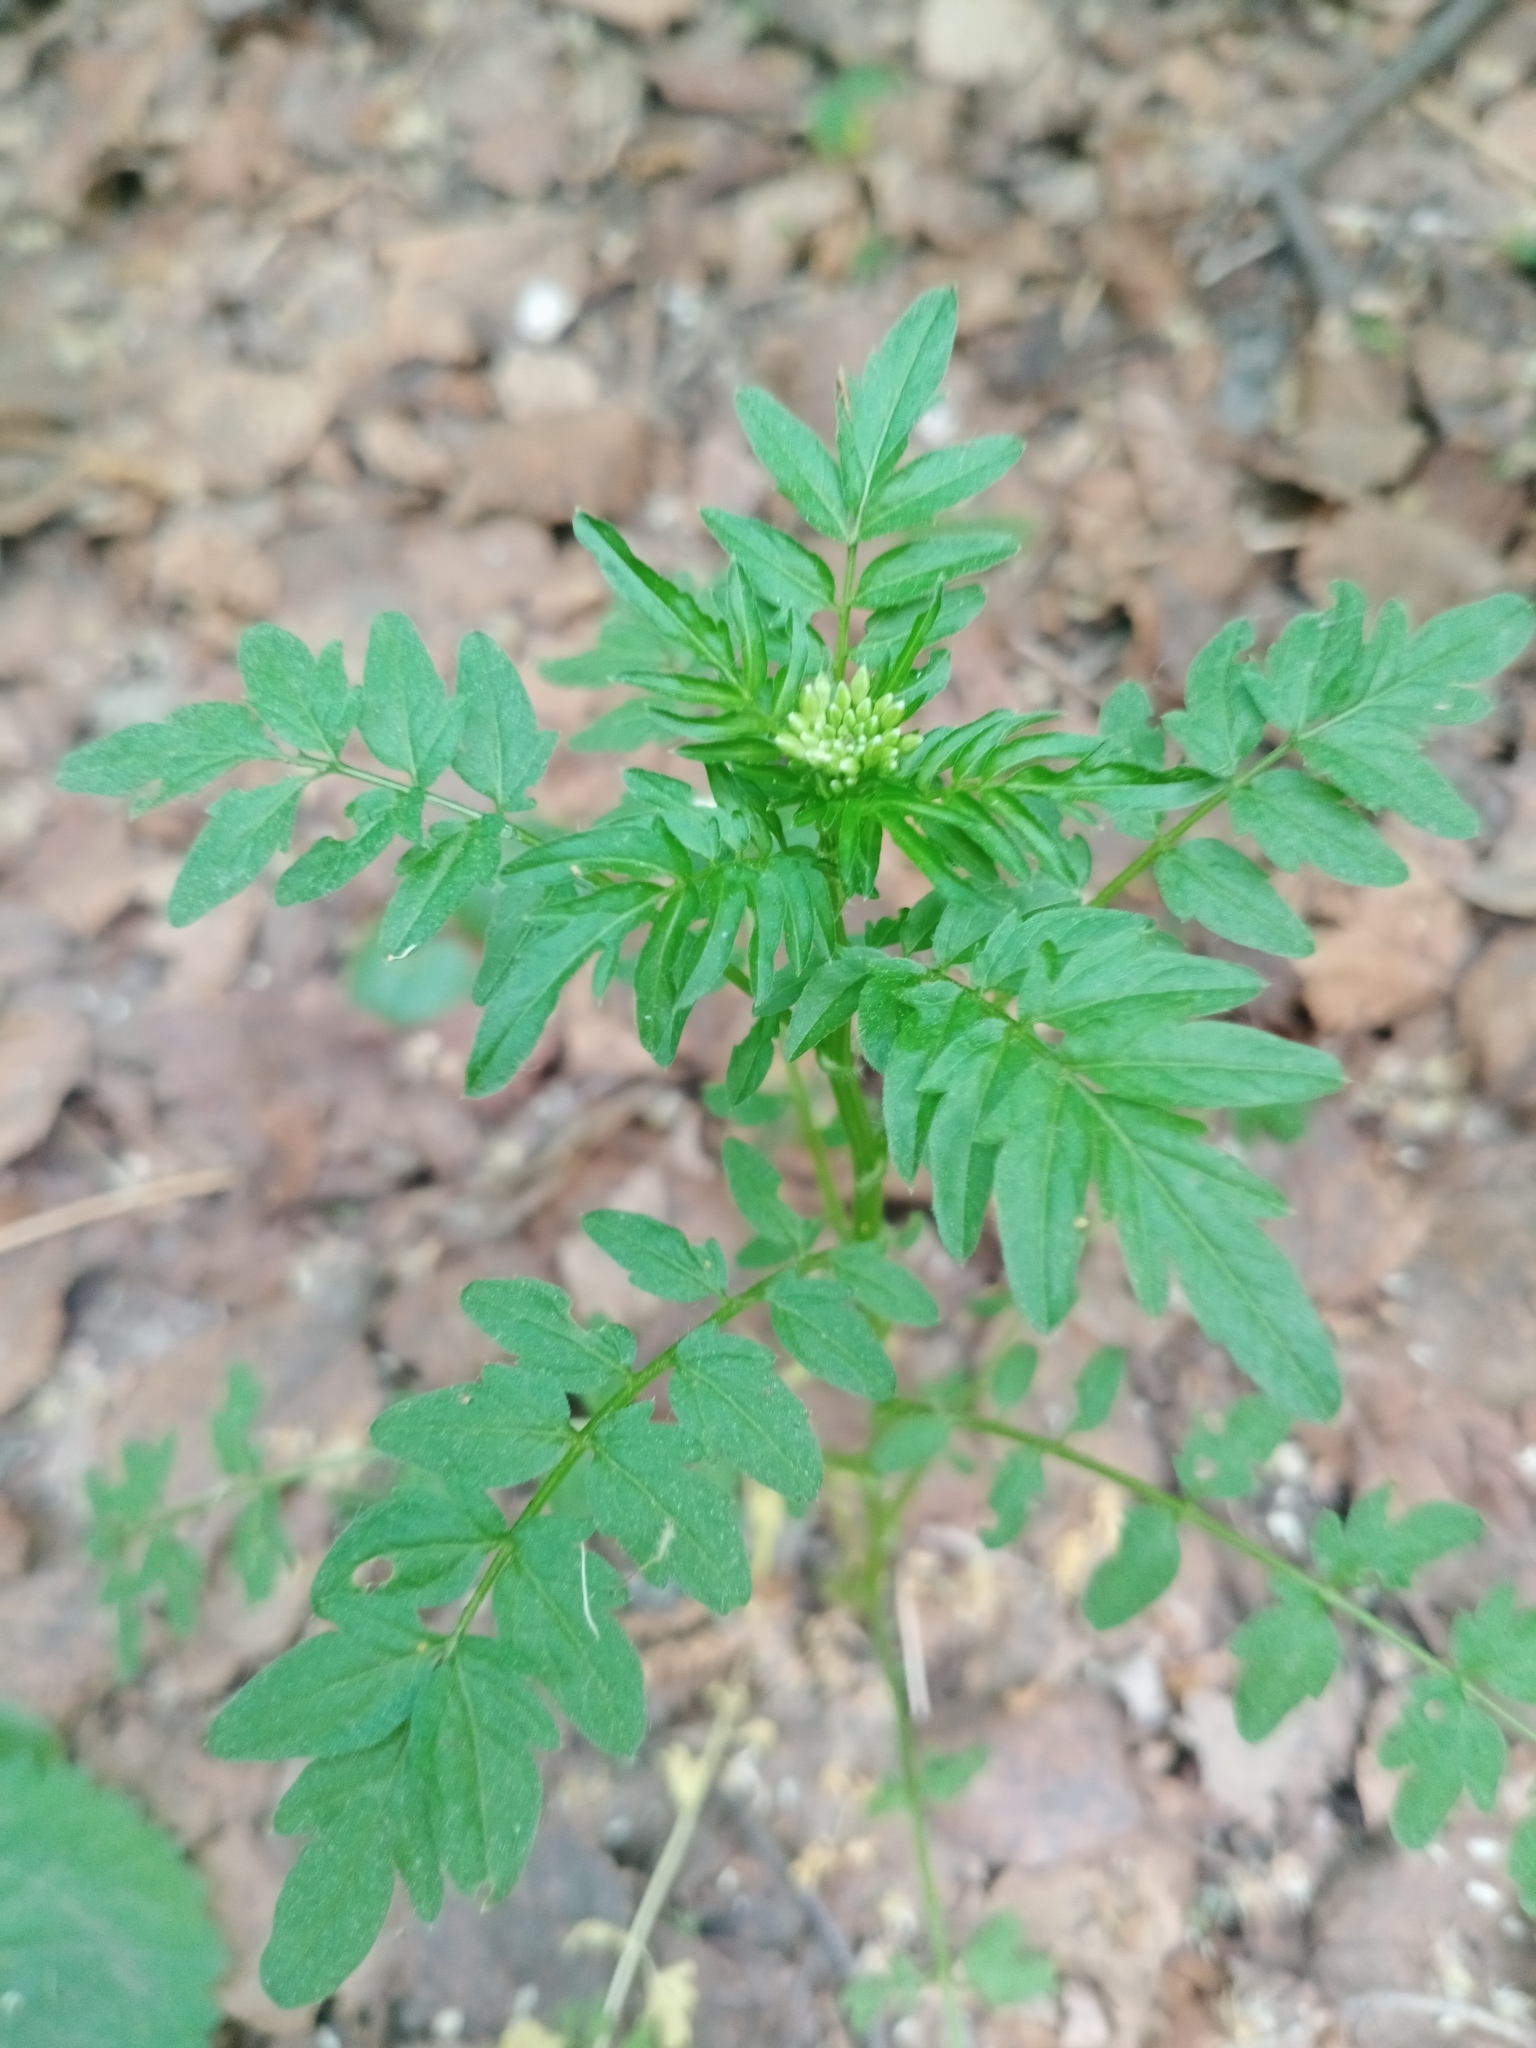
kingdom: Plantae
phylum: Tracheophyta
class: Magnoliopsida
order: Brassicales
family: Brassicaceae
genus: Cardamine
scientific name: Cardamine impatiens
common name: Narrow-leaved bitter-cress
